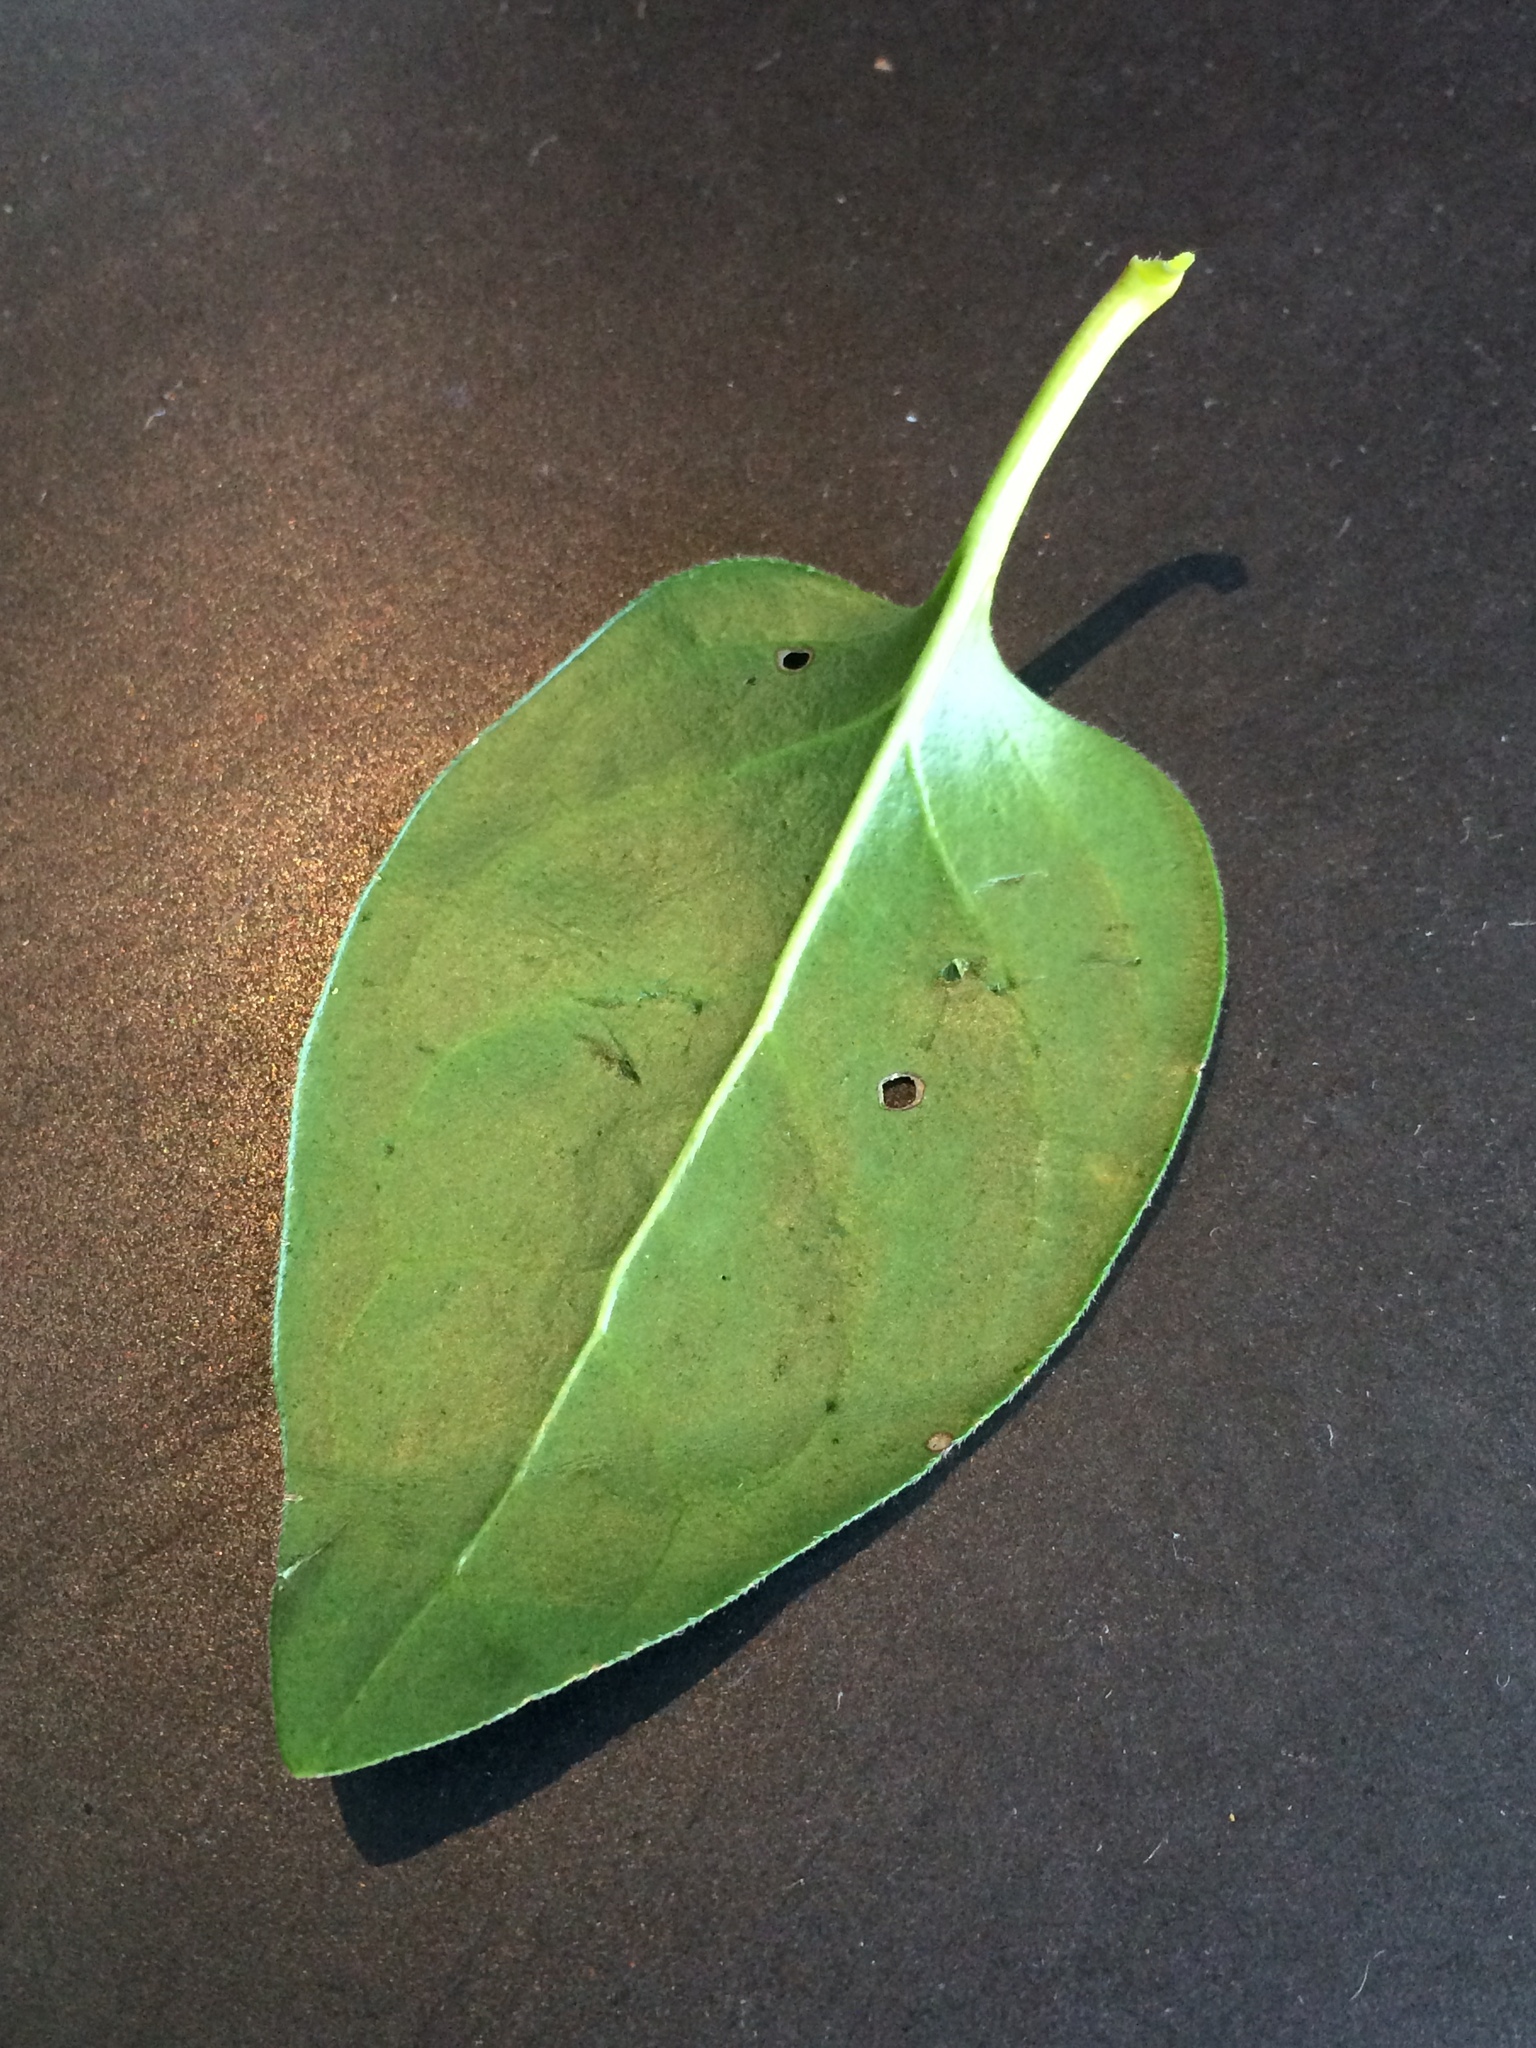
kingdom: Plantae
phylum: Tracheophyta
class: Magnoliopsida
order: Gentianales
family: Apocynaceae
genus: Vinca
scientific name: Vinca major
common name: Greater periwinkle
